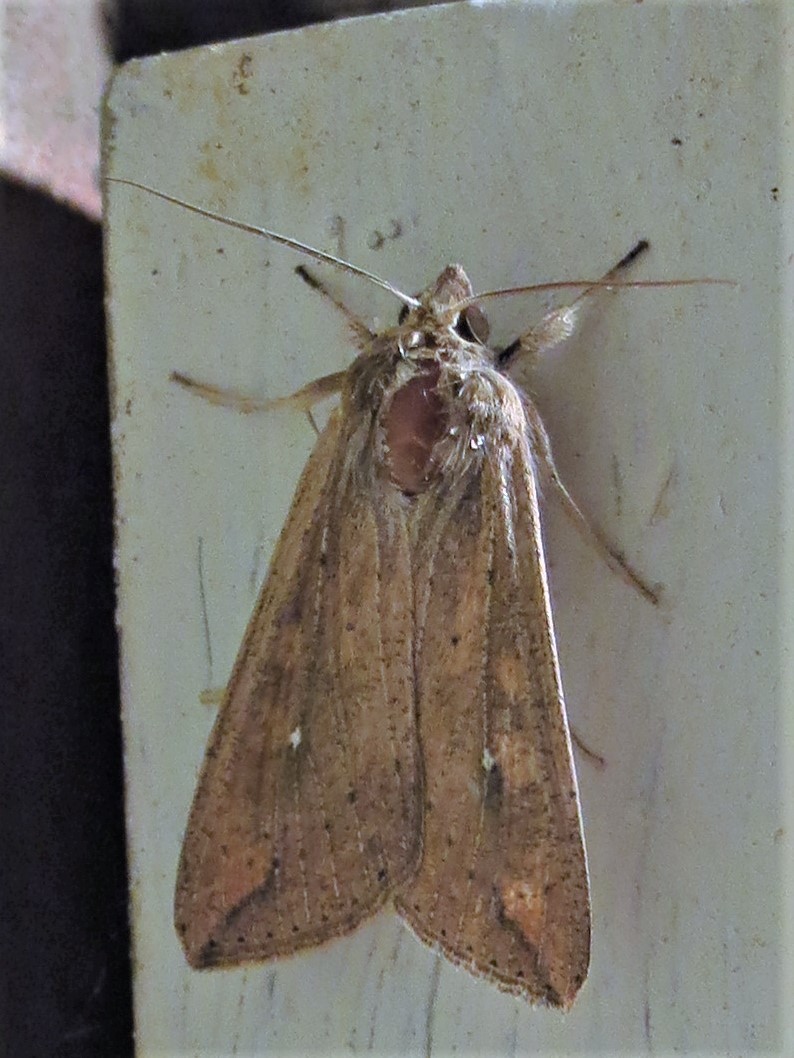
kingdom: Animalia
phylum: Arthropoda
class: Insecta
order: Lepidoptera
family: Noctuidae
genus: Mythimna
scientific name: Mythimna unipuncta
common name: White-speck
